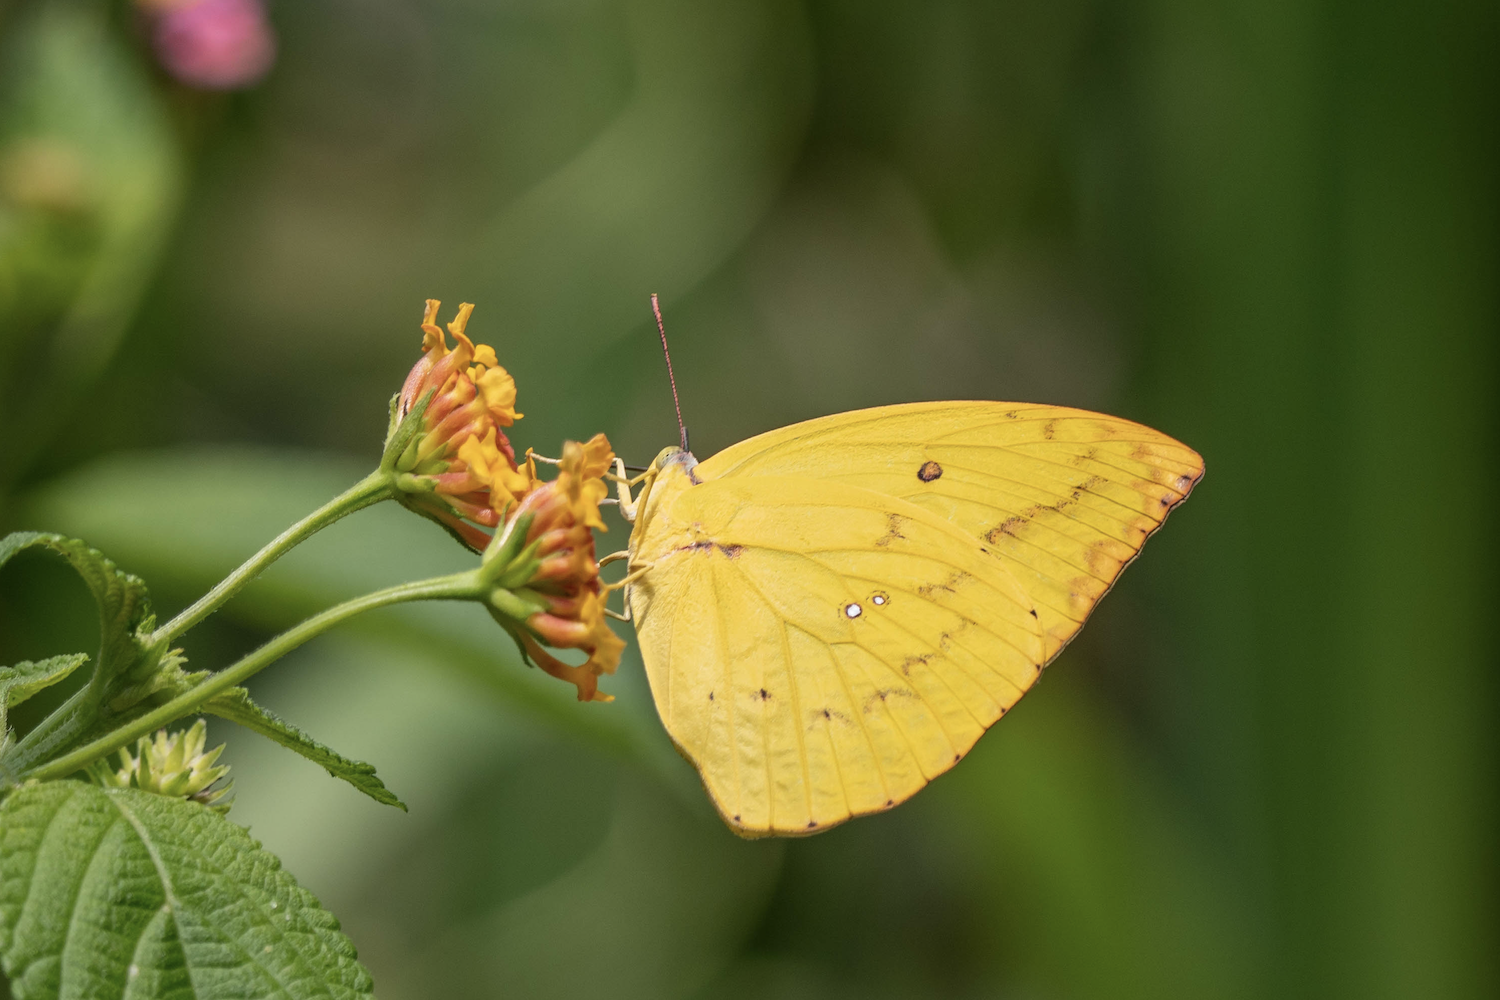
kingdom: Animalia
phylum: Arthropoda
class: Insecta
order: Lepidoptera
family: Pieridae
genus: Catopsilia
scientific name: Catopsilia pomona
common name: Common emigrant
